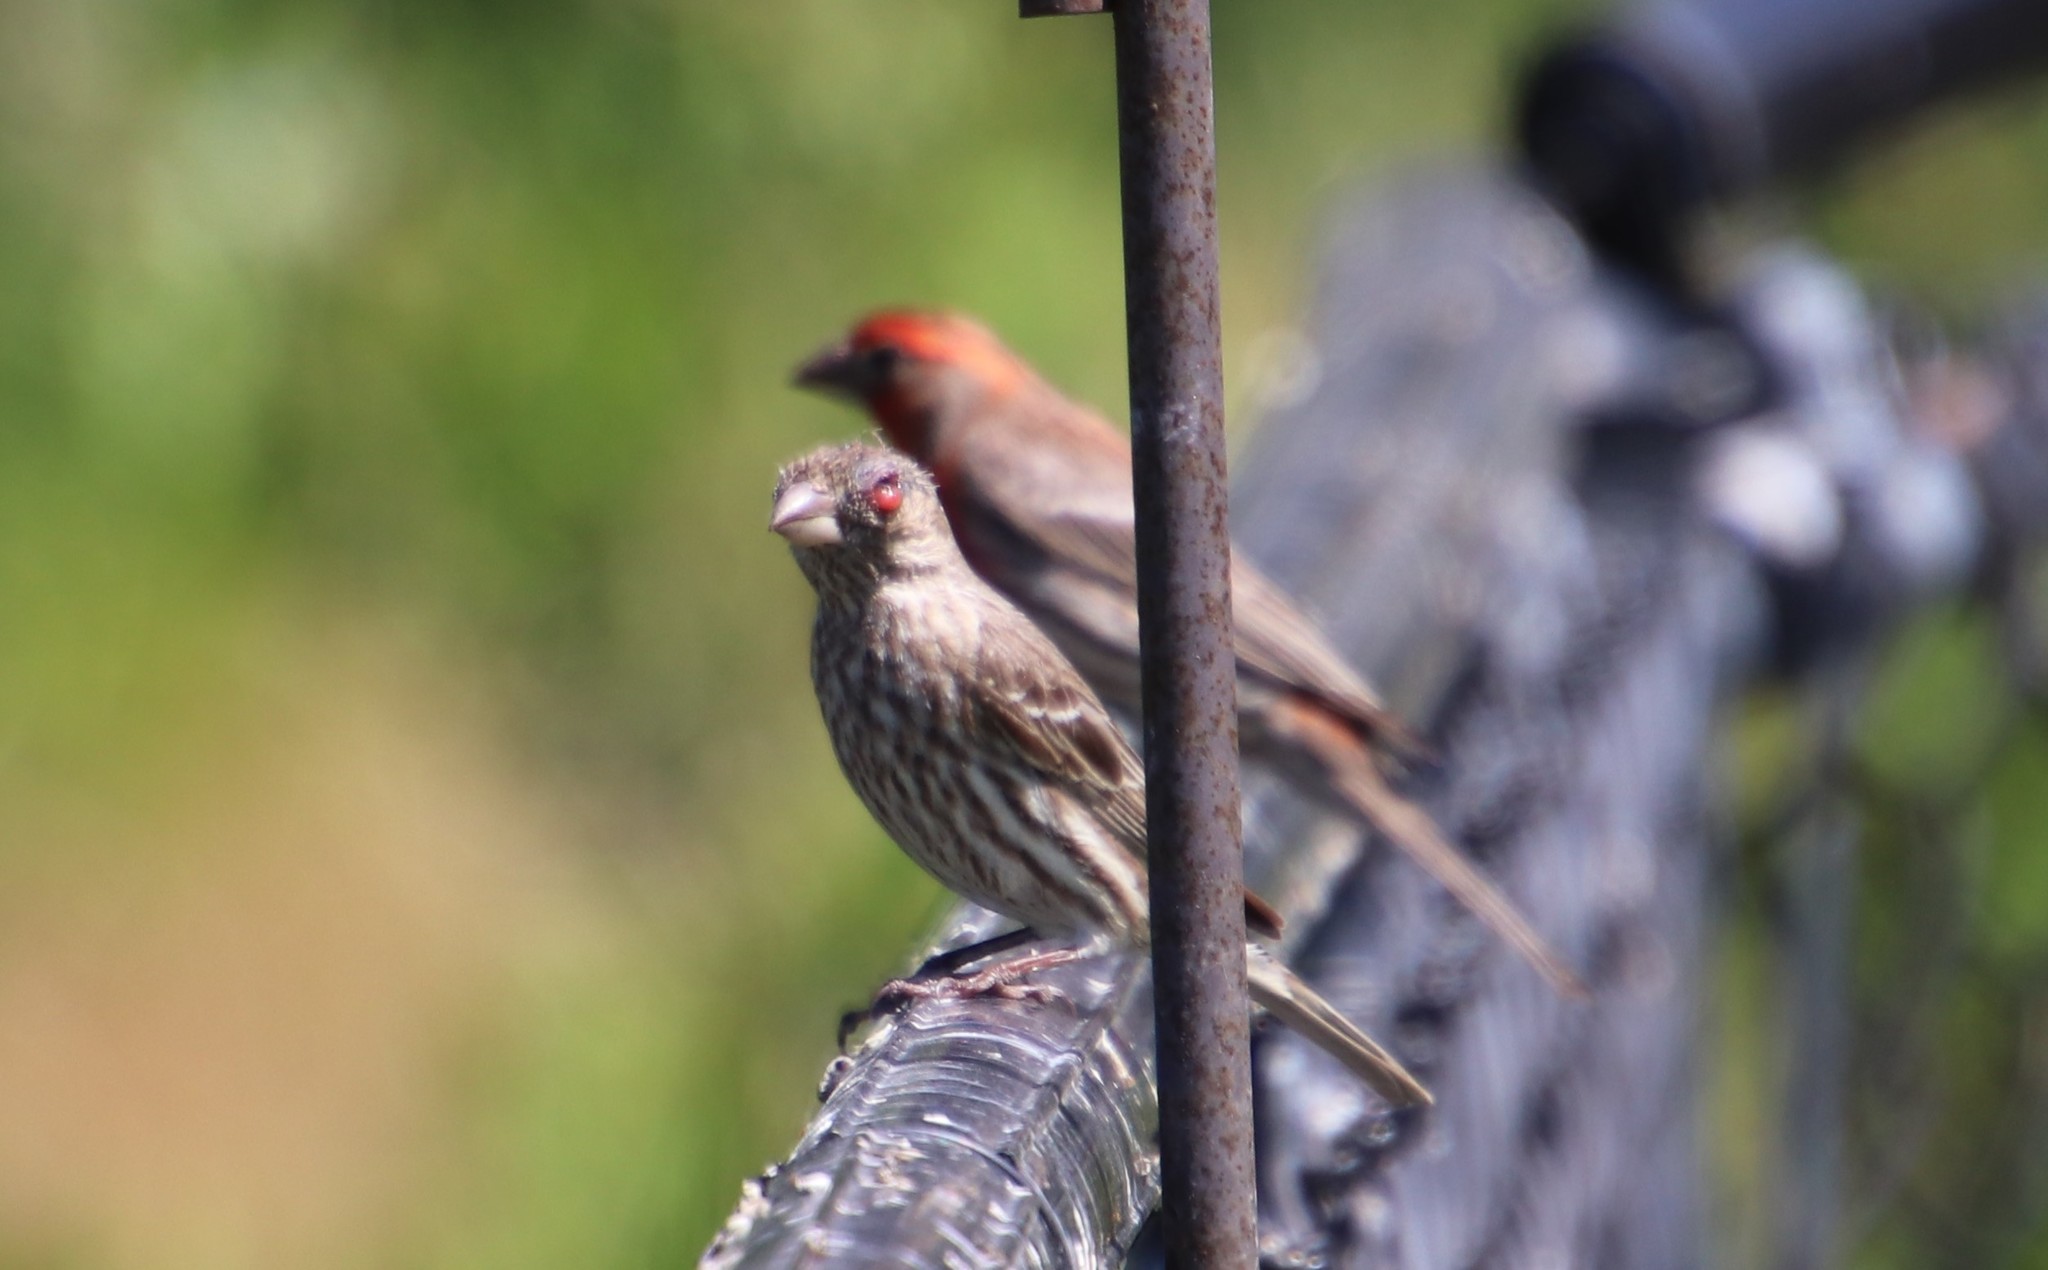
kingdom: Animalia
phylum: Chordata
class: Aves
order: Passeriformes
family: Fringillidae
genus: Haemorhous
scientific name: Haemorhous mexicanus
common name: House finch
